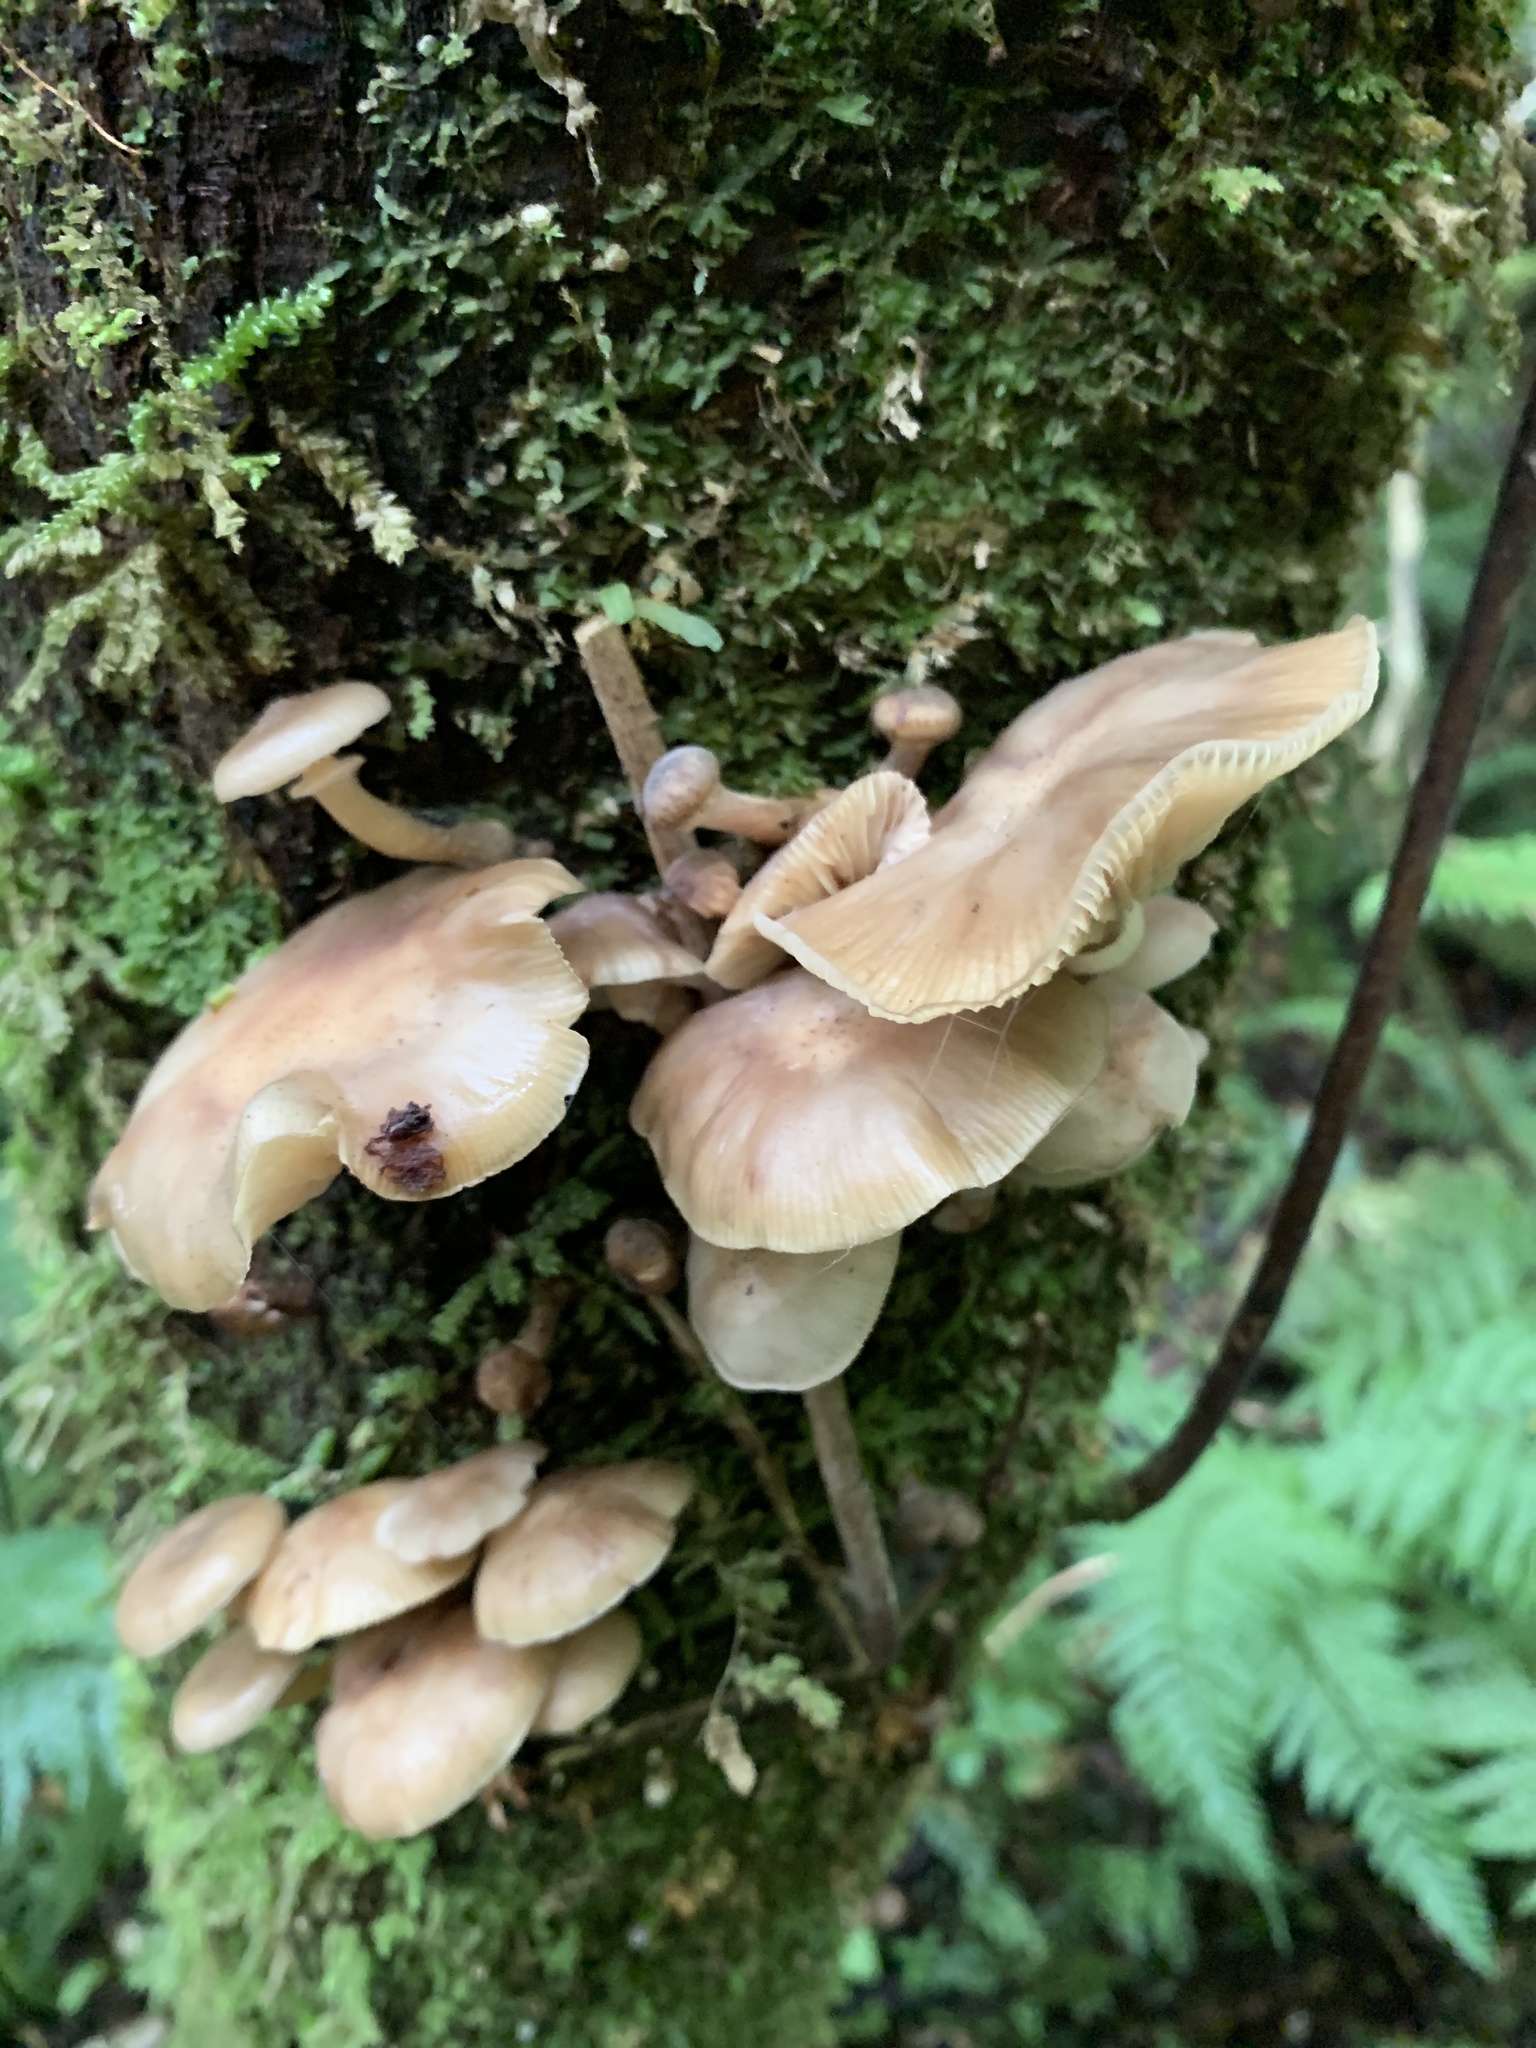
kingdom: Fungi
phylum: Basidiomycota
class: Agaricomycetes
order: Agaricales
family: Physalacriaceae
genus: Armillaria
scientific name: Armillaria novae-zelandiae
